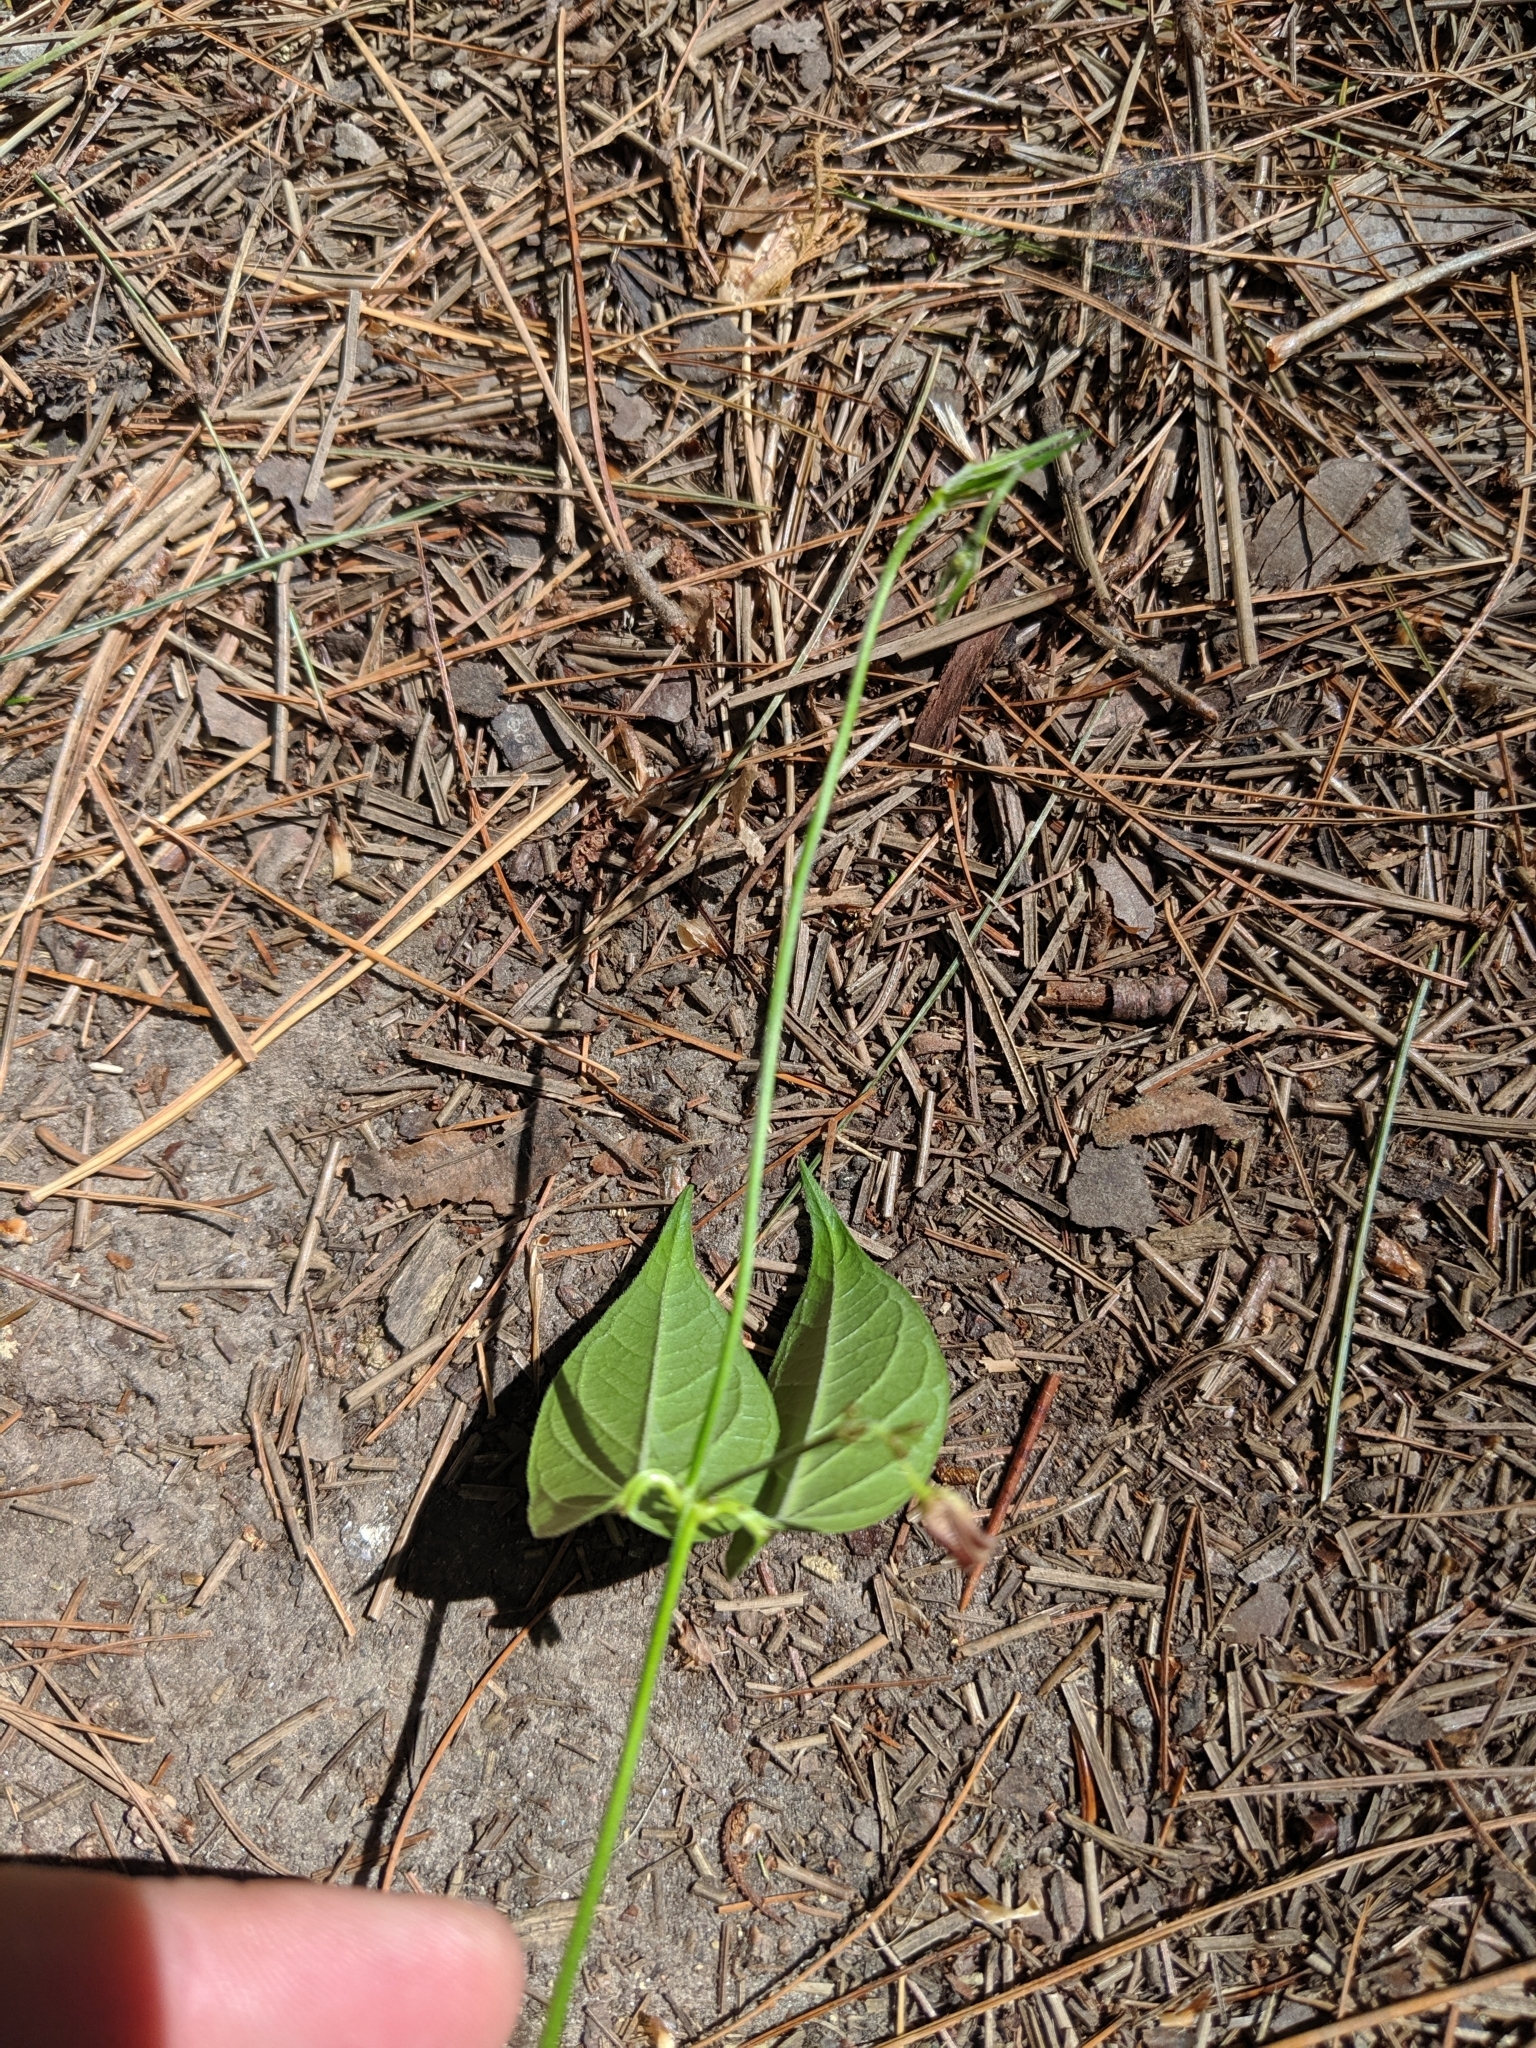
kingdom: Plantae
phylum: Tracheophyta
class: Magnoliopsida
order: Gentianales
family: Apocynaceae
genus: Vincetoxicum
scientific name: Vincetoxicum rossicum
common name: Dog-strangling vine
